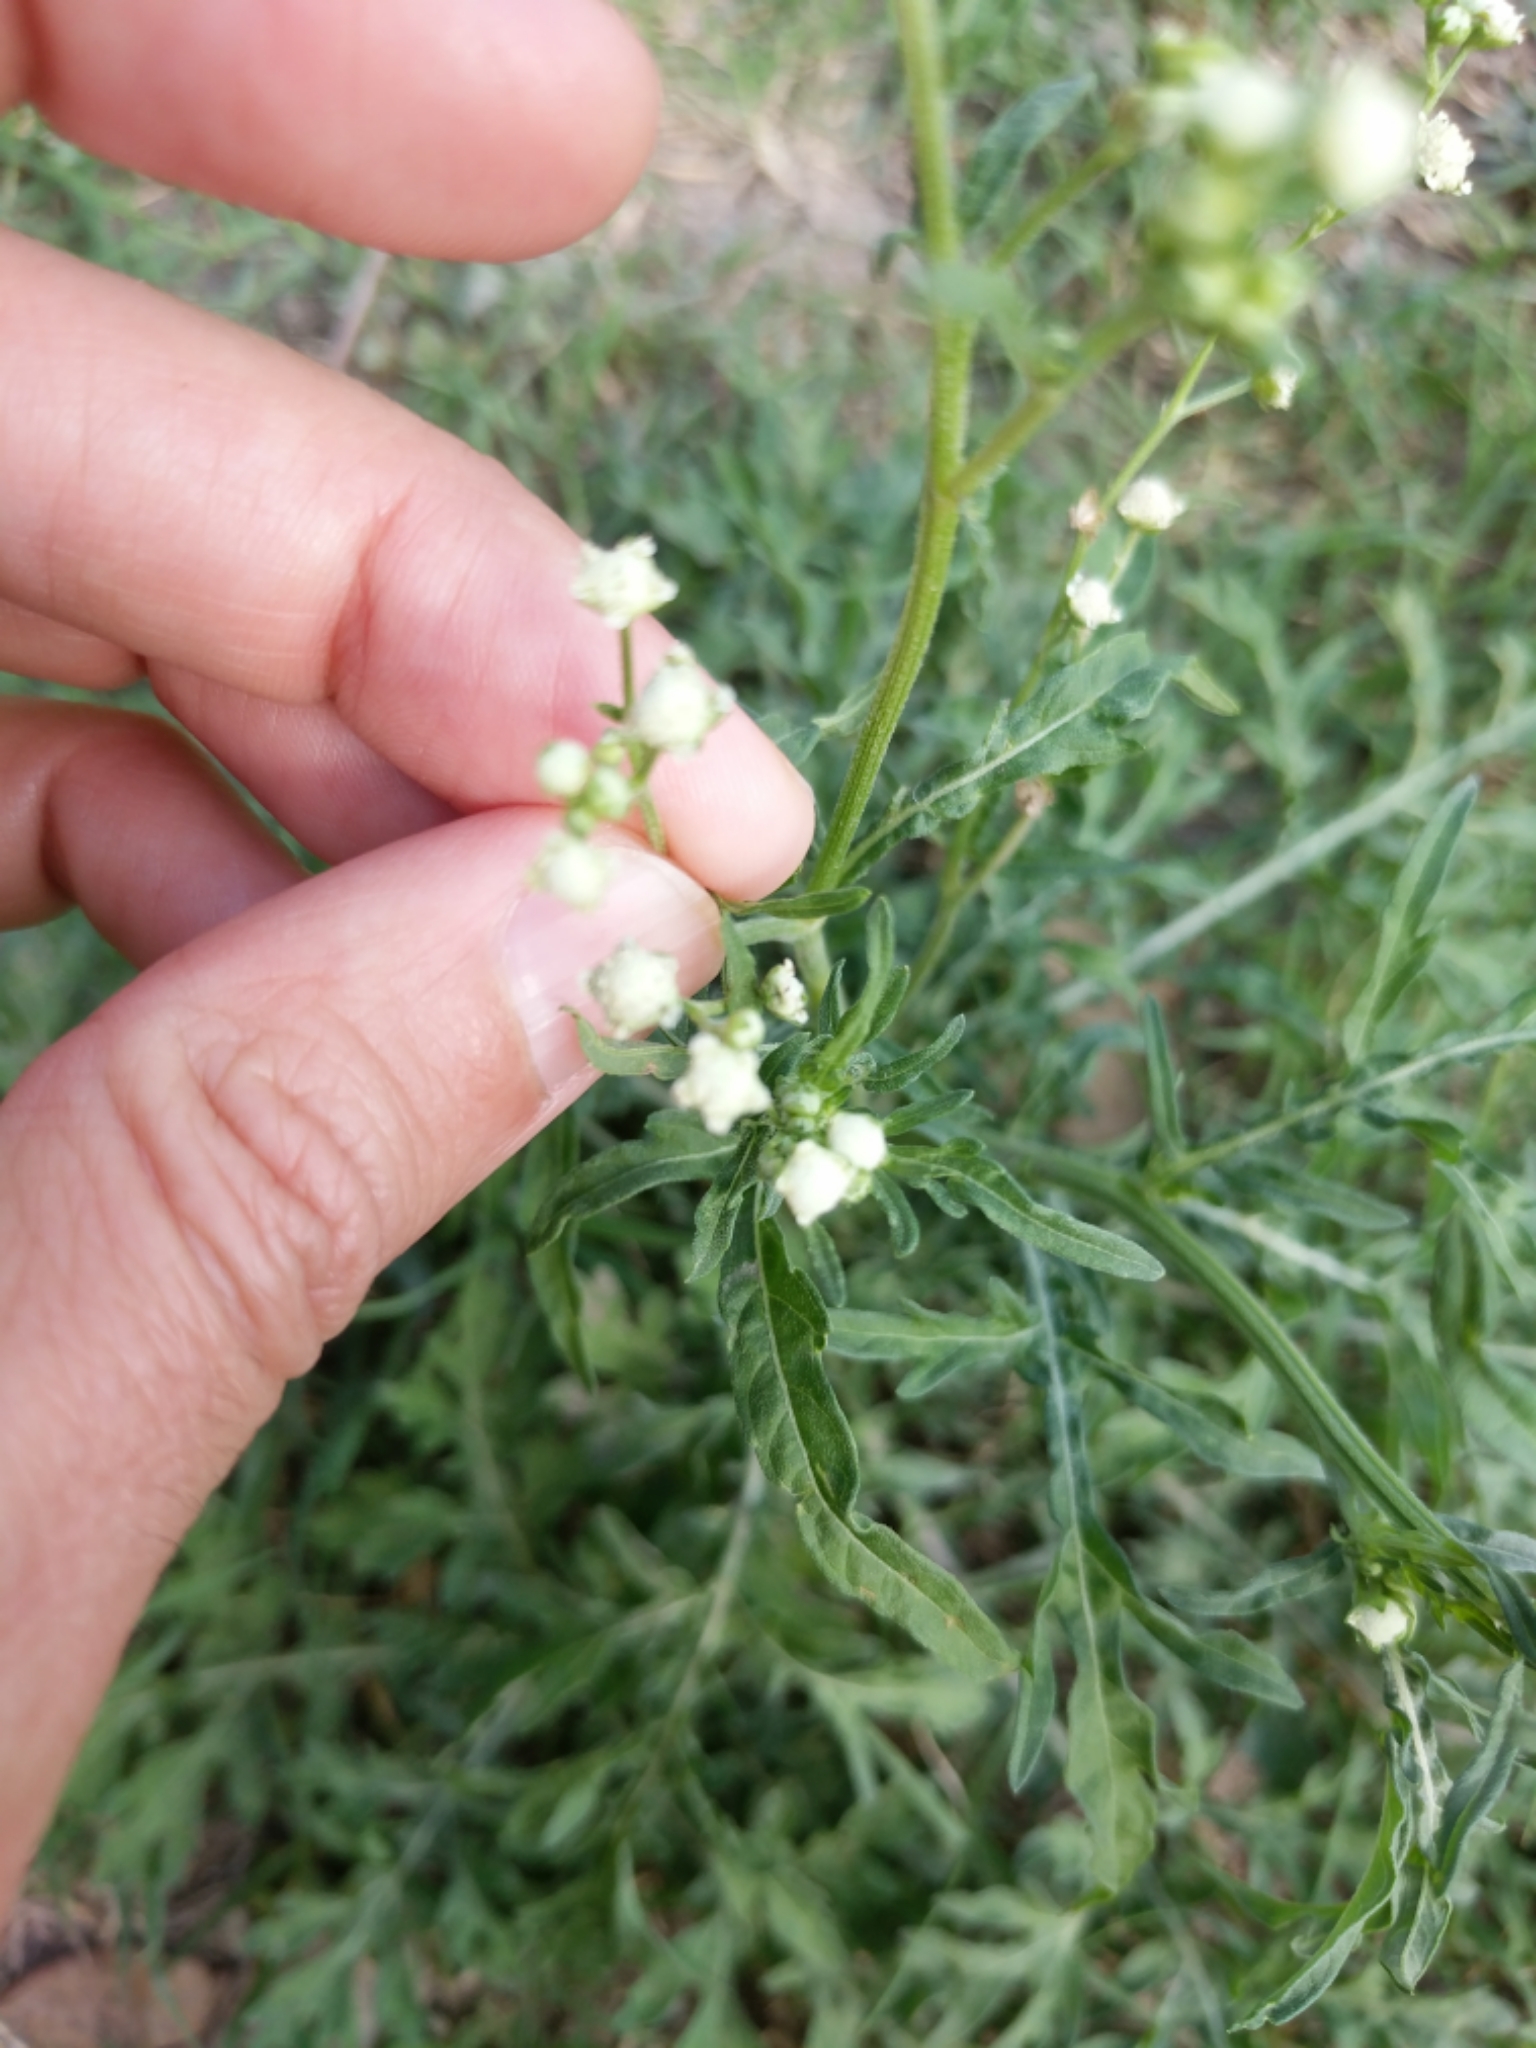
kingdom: Plantae
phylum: Tracheophyta
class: Magnoliopsida
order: Asterales
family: Asteraceae
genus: Parthenium
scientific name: Parthenium hysterophorus
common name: Santa maria feverfew
